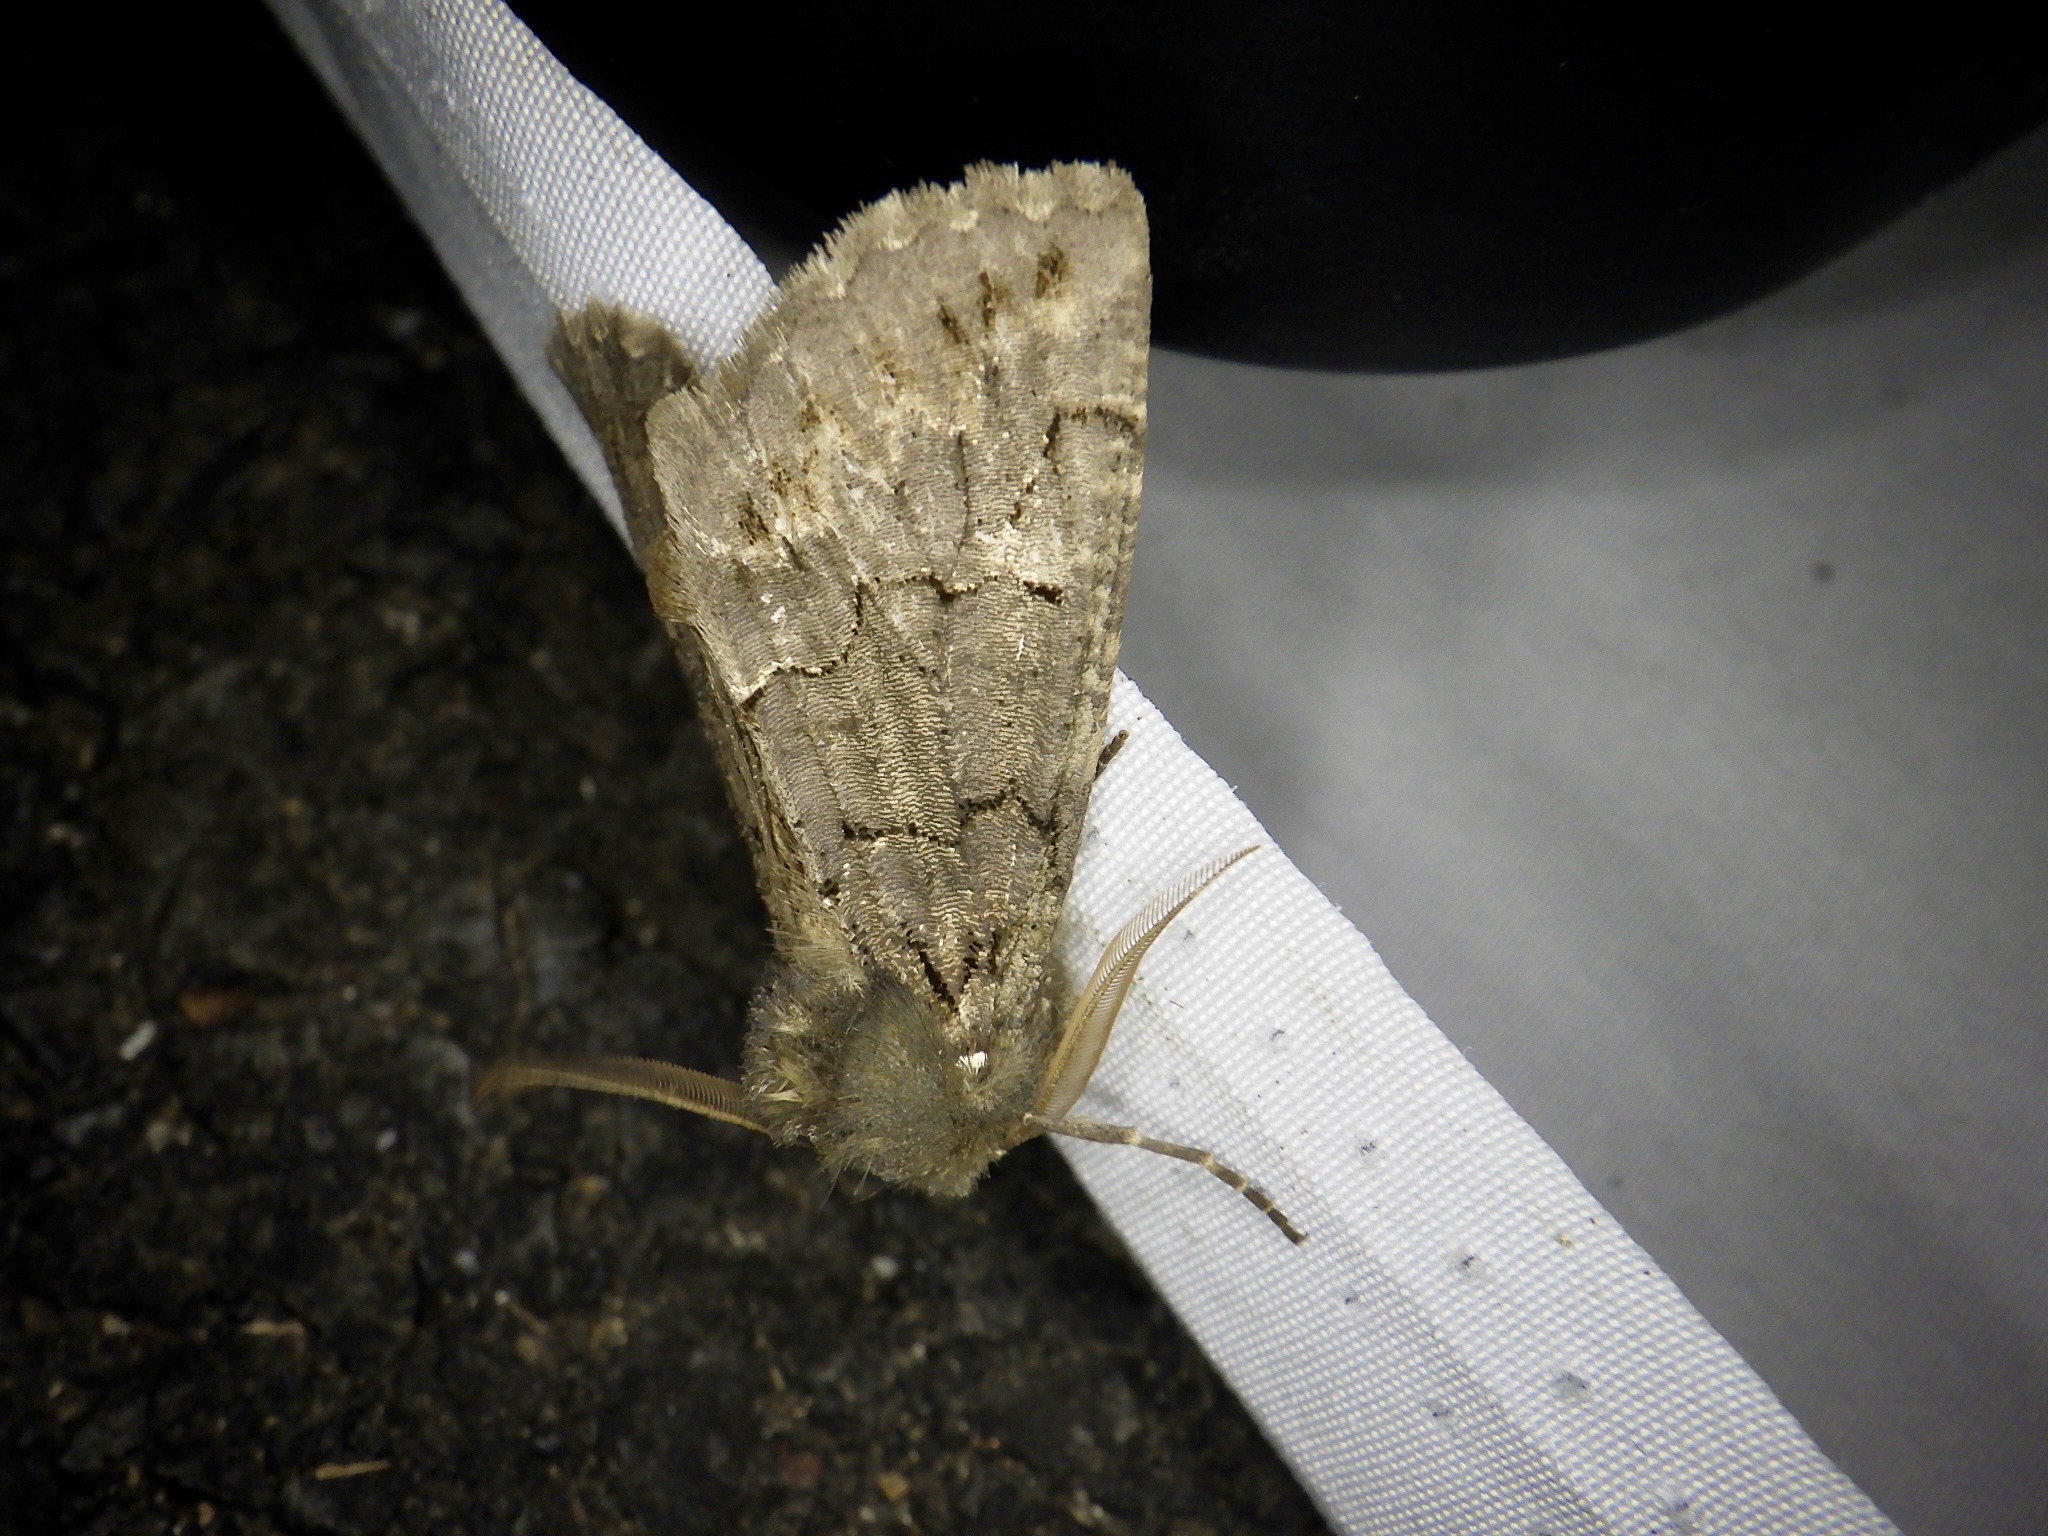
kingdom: Animalia
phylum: Arthropoda
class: Insecta
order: Lepidoptera
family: Geometridae
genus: Pachyligia
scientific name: Pachyligia dolosa
